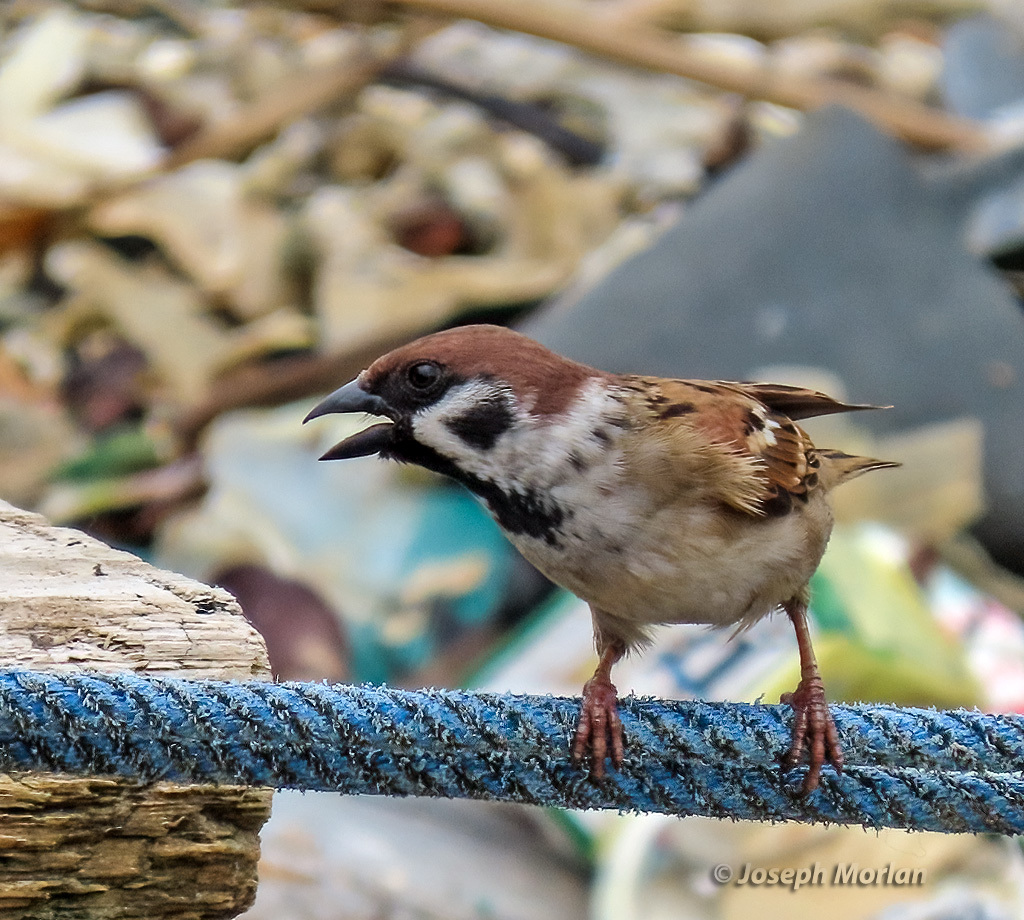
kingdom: Animalia
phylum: Chordata
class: Aves
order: Passeriformes
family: Passeridae
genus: Passer
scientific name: Passer montanus
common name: Eurasian tree sparrow
